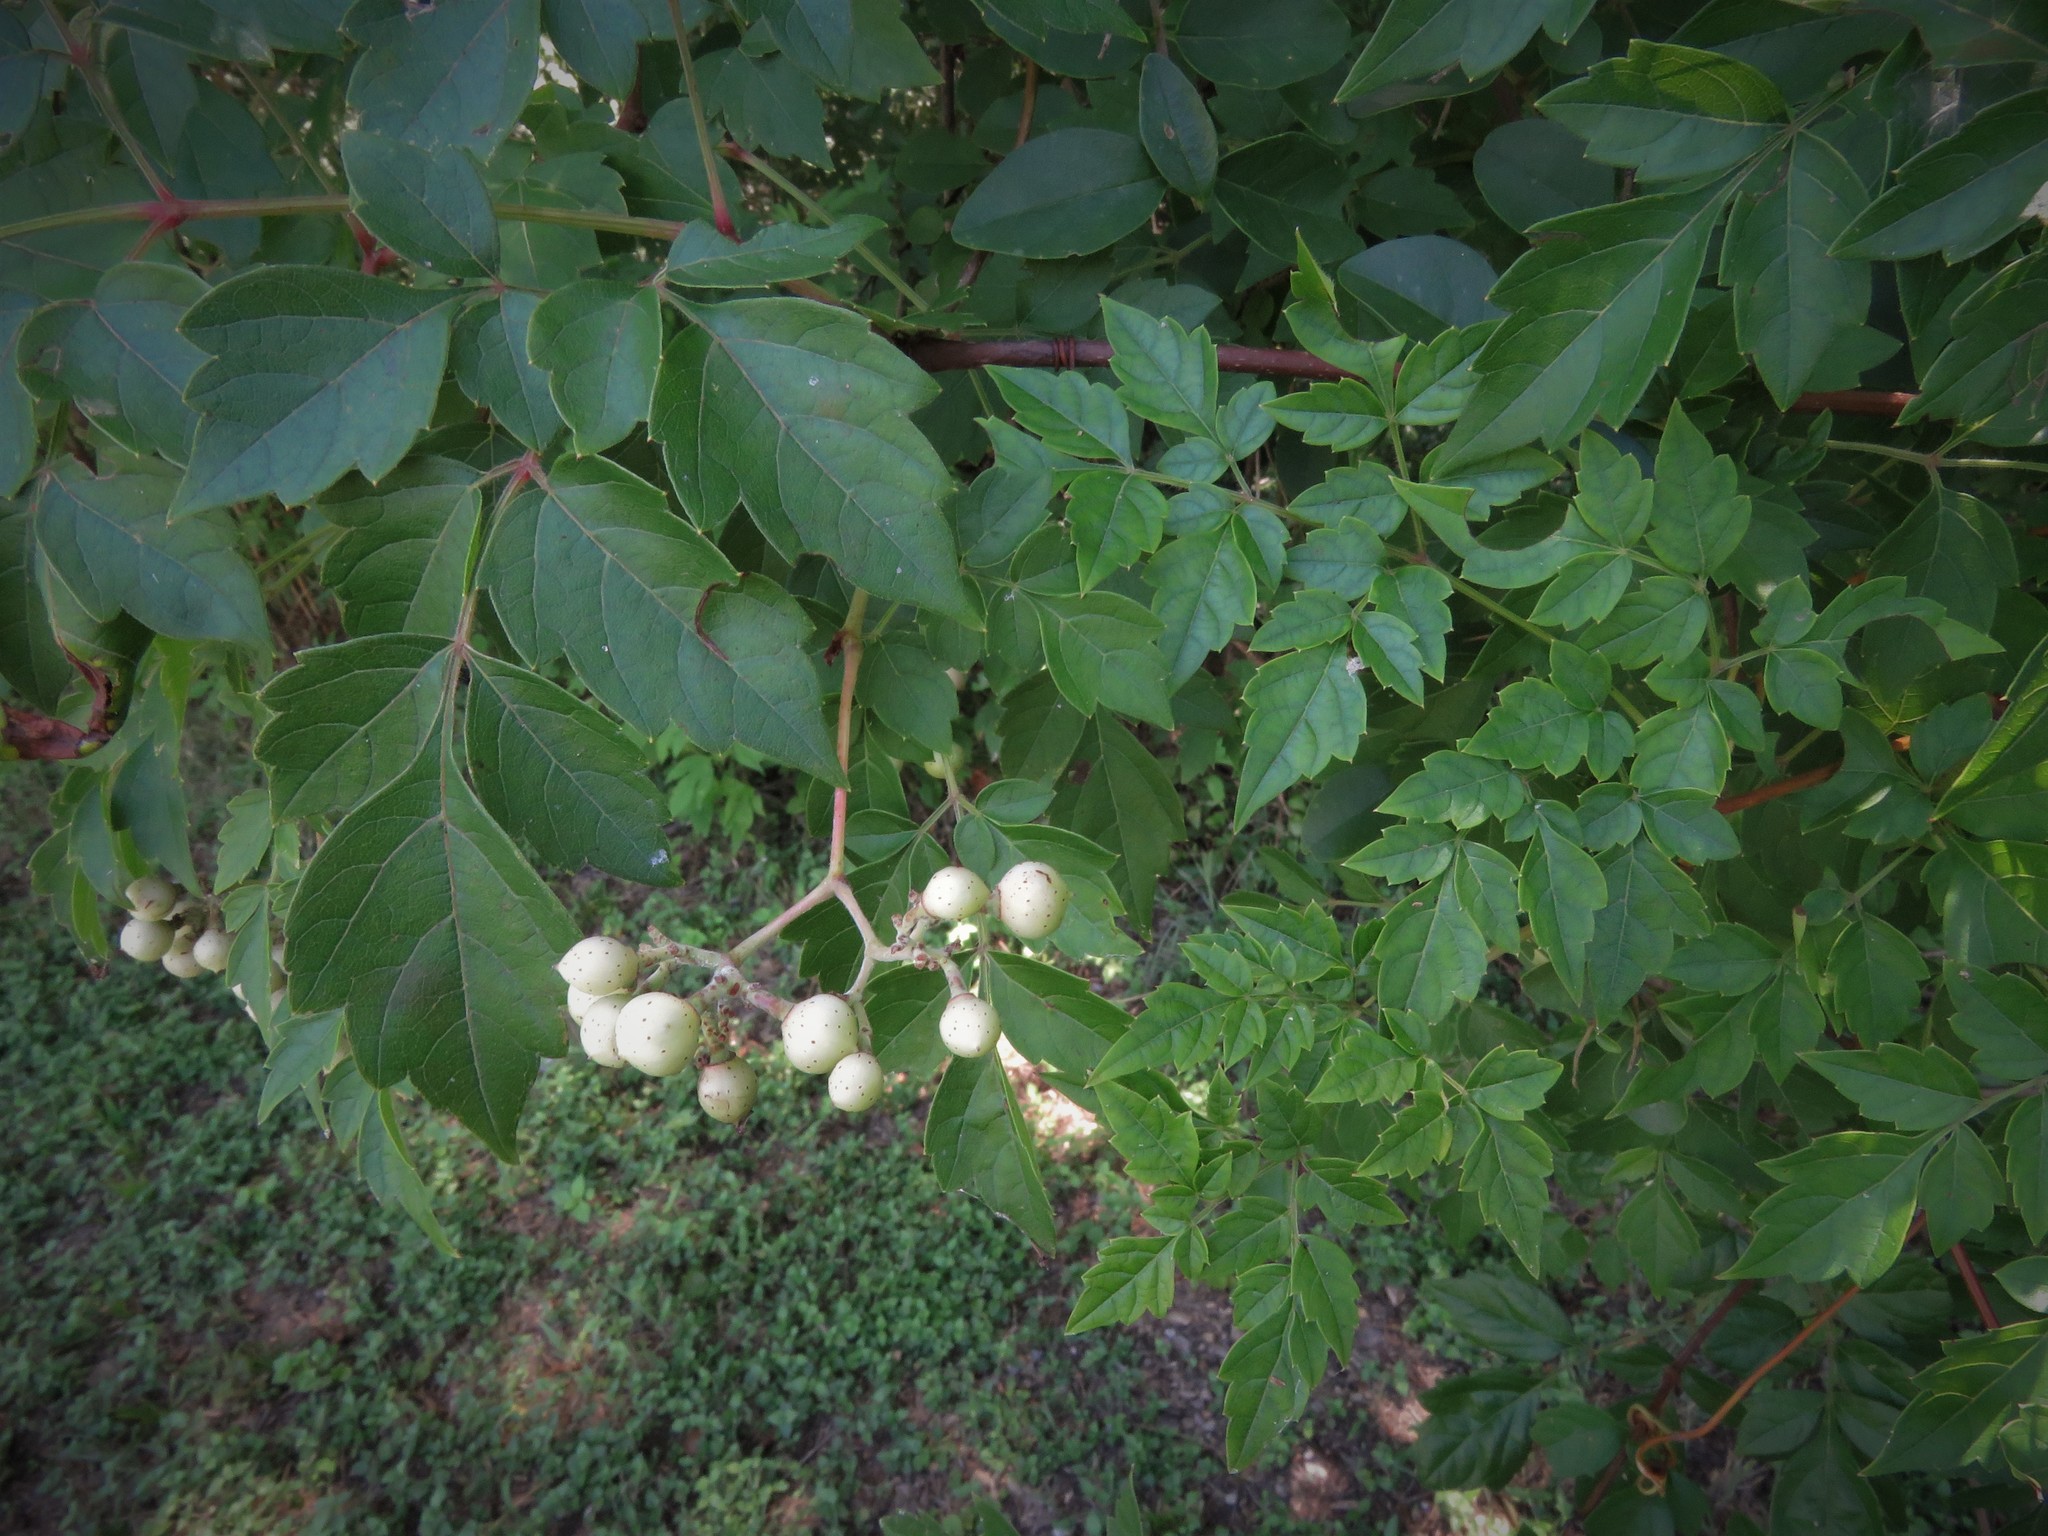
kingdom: Plantae
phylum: Tracheophyta
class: Magnoliopsida
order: Vitales
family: Vitaceae
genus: Nekemias
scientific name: Nekemias arborea
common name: Peppervine
